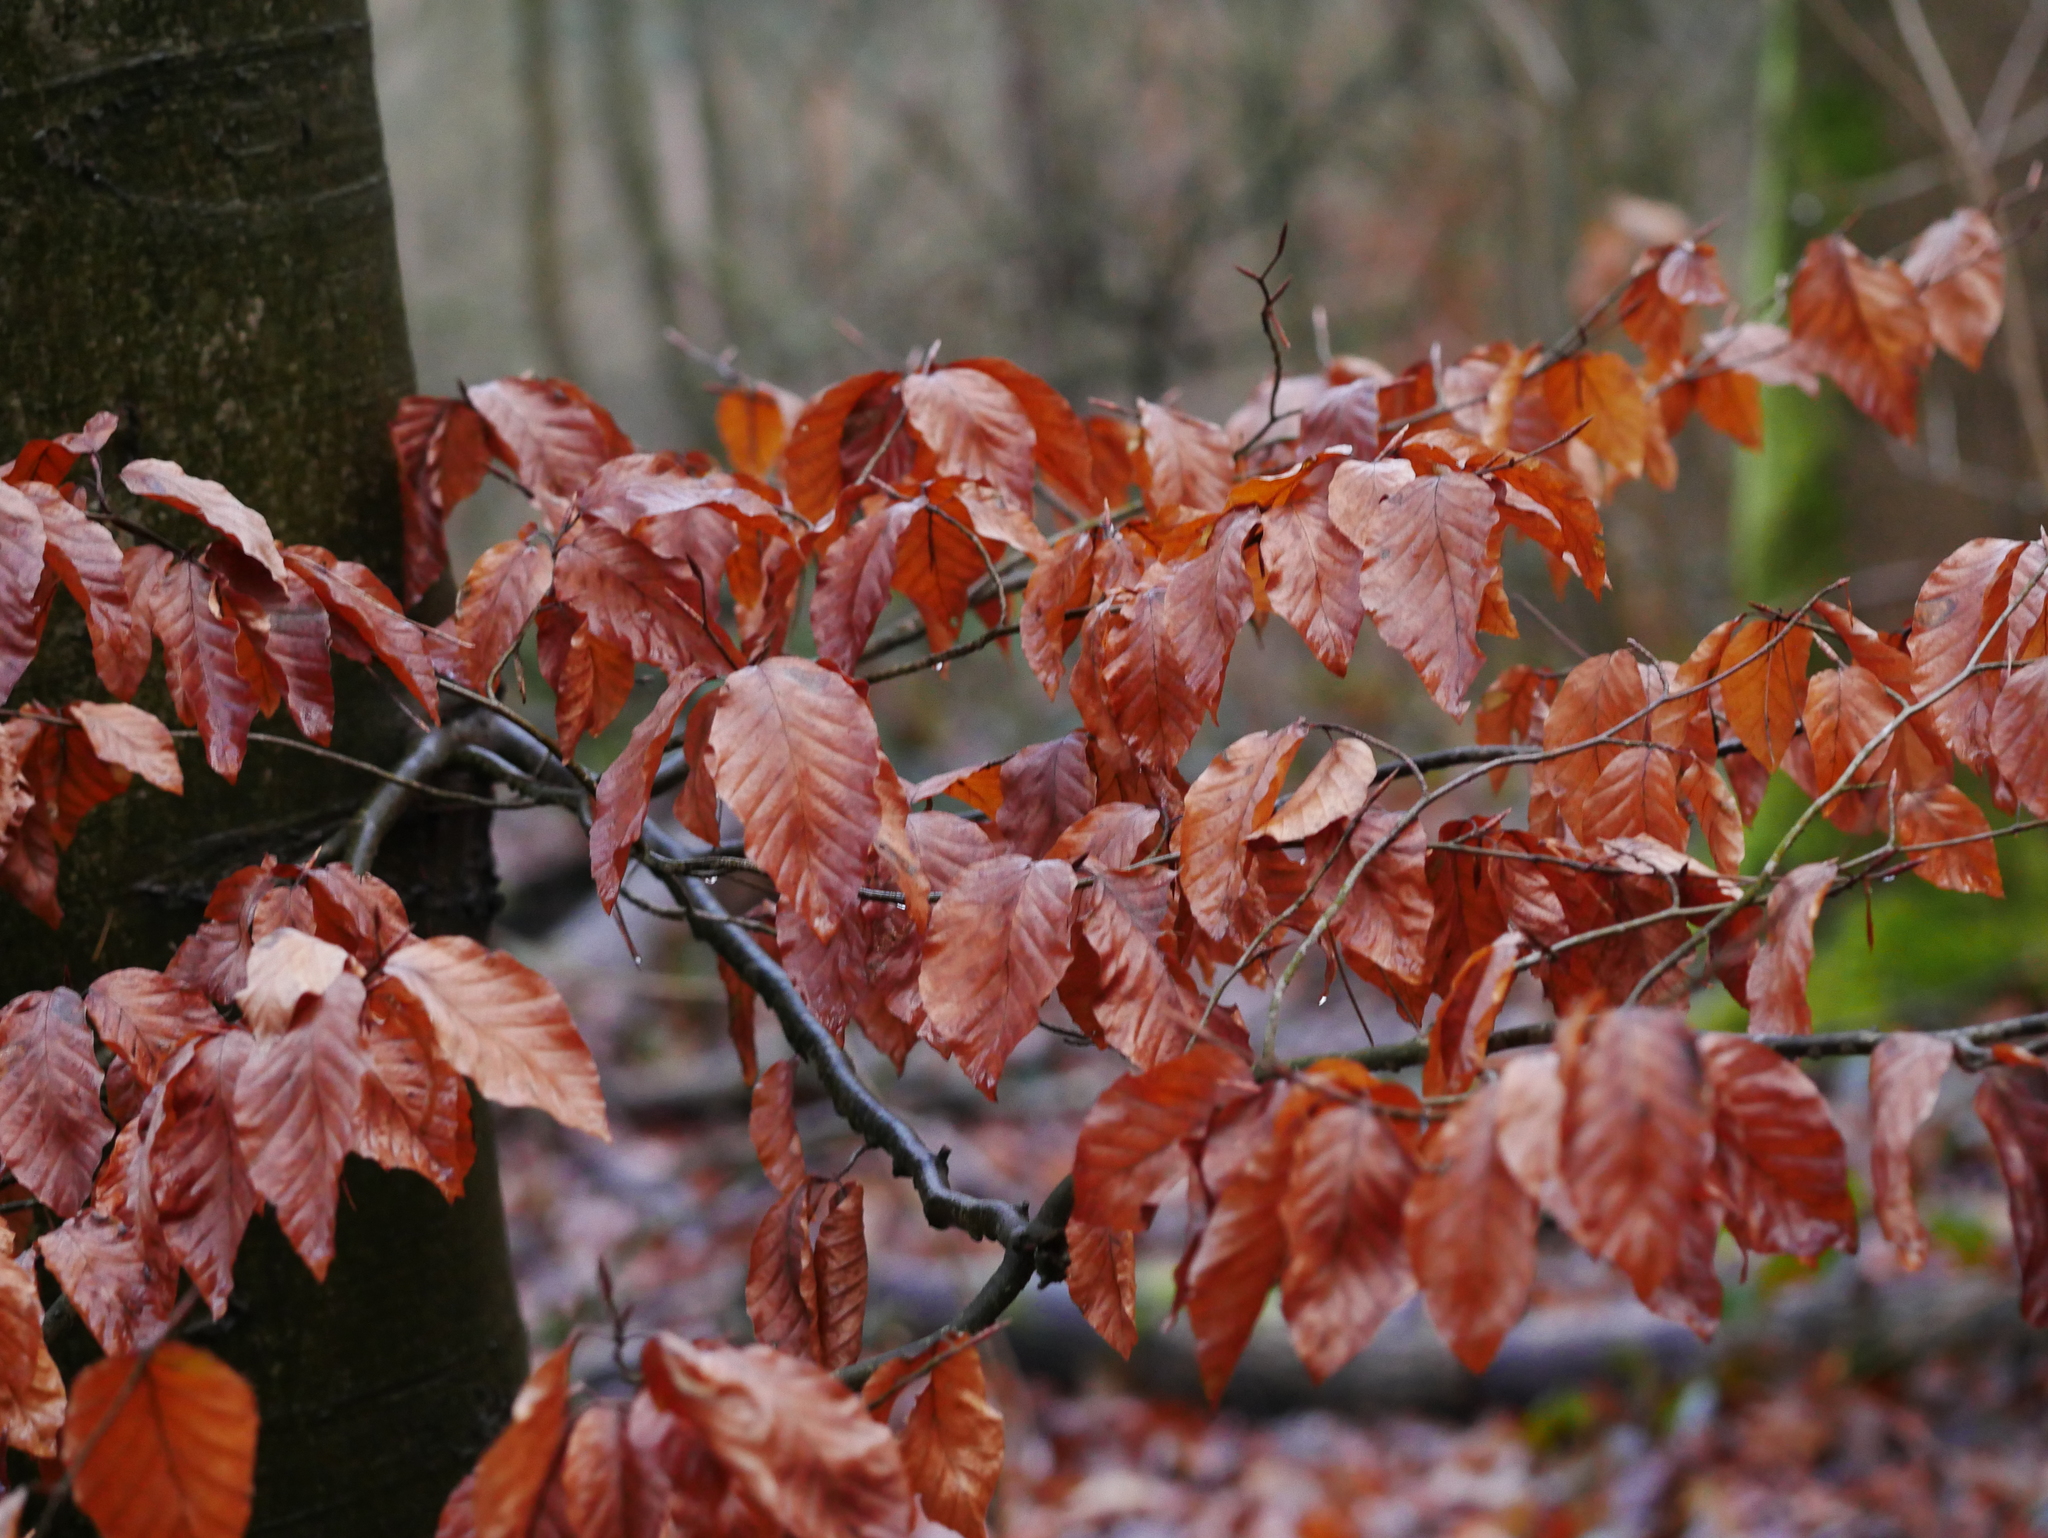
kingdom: Plantae
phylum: Tracheophyta
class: Magnoliopsida
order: Fagales
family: Fagaceae
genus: Fagus
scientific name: Fagus sylvatica
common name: Beech
